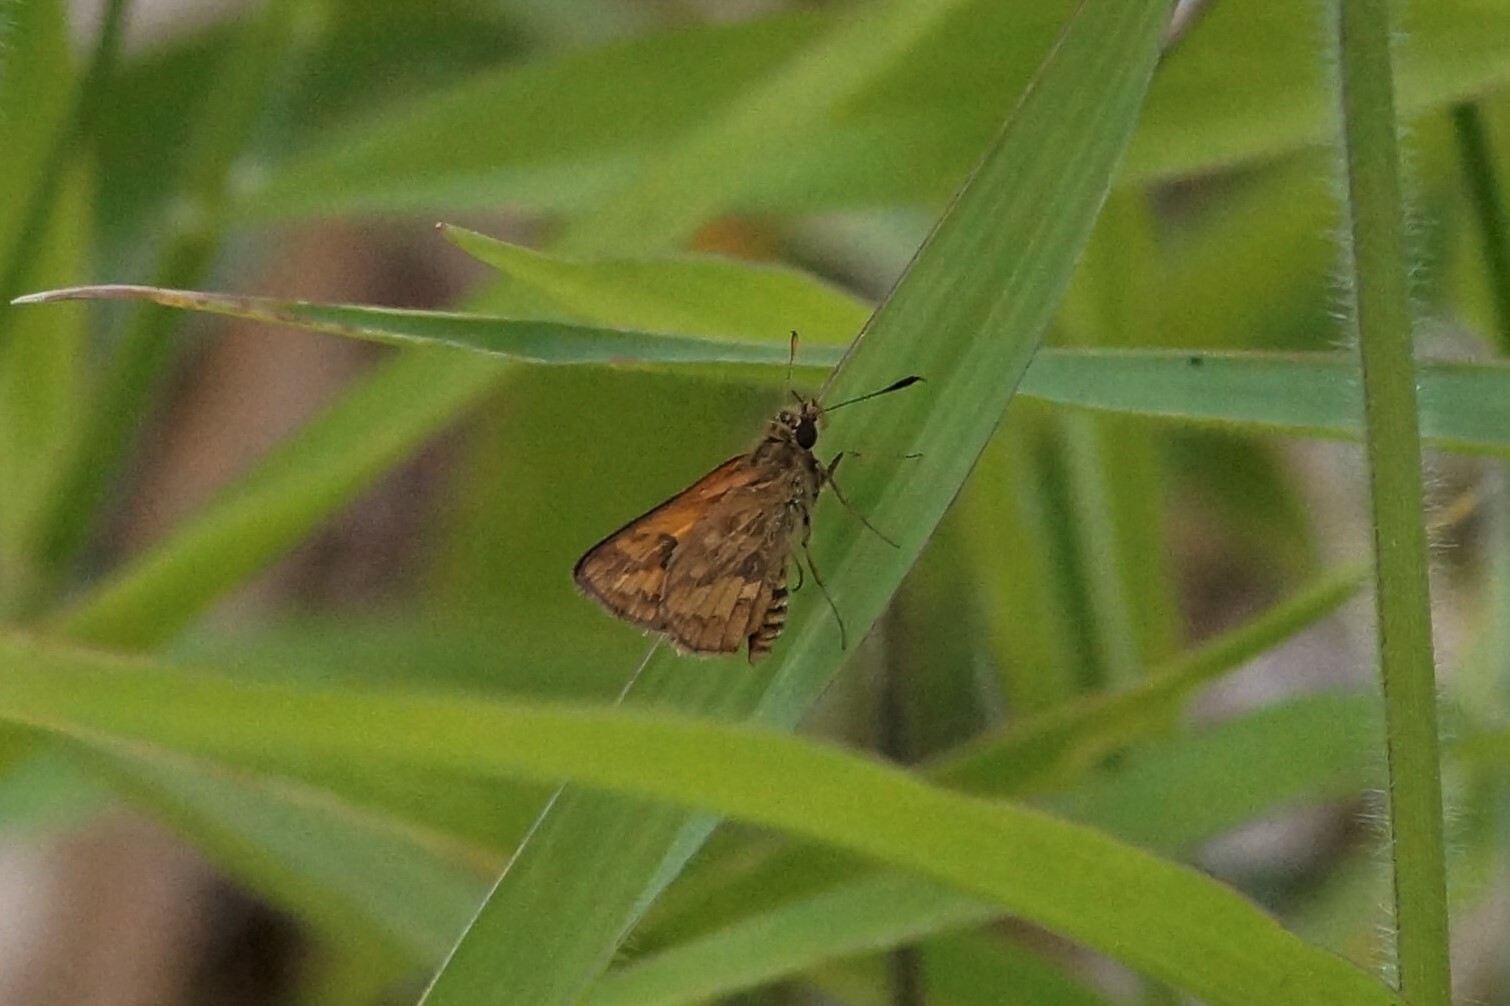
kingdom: Animalia
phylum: Arthropoda
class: Insecta
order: Lepidoptera
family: Hesperiidae
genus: Suniana
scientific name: Suniana sunias
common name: Wide-brand grass-dart
